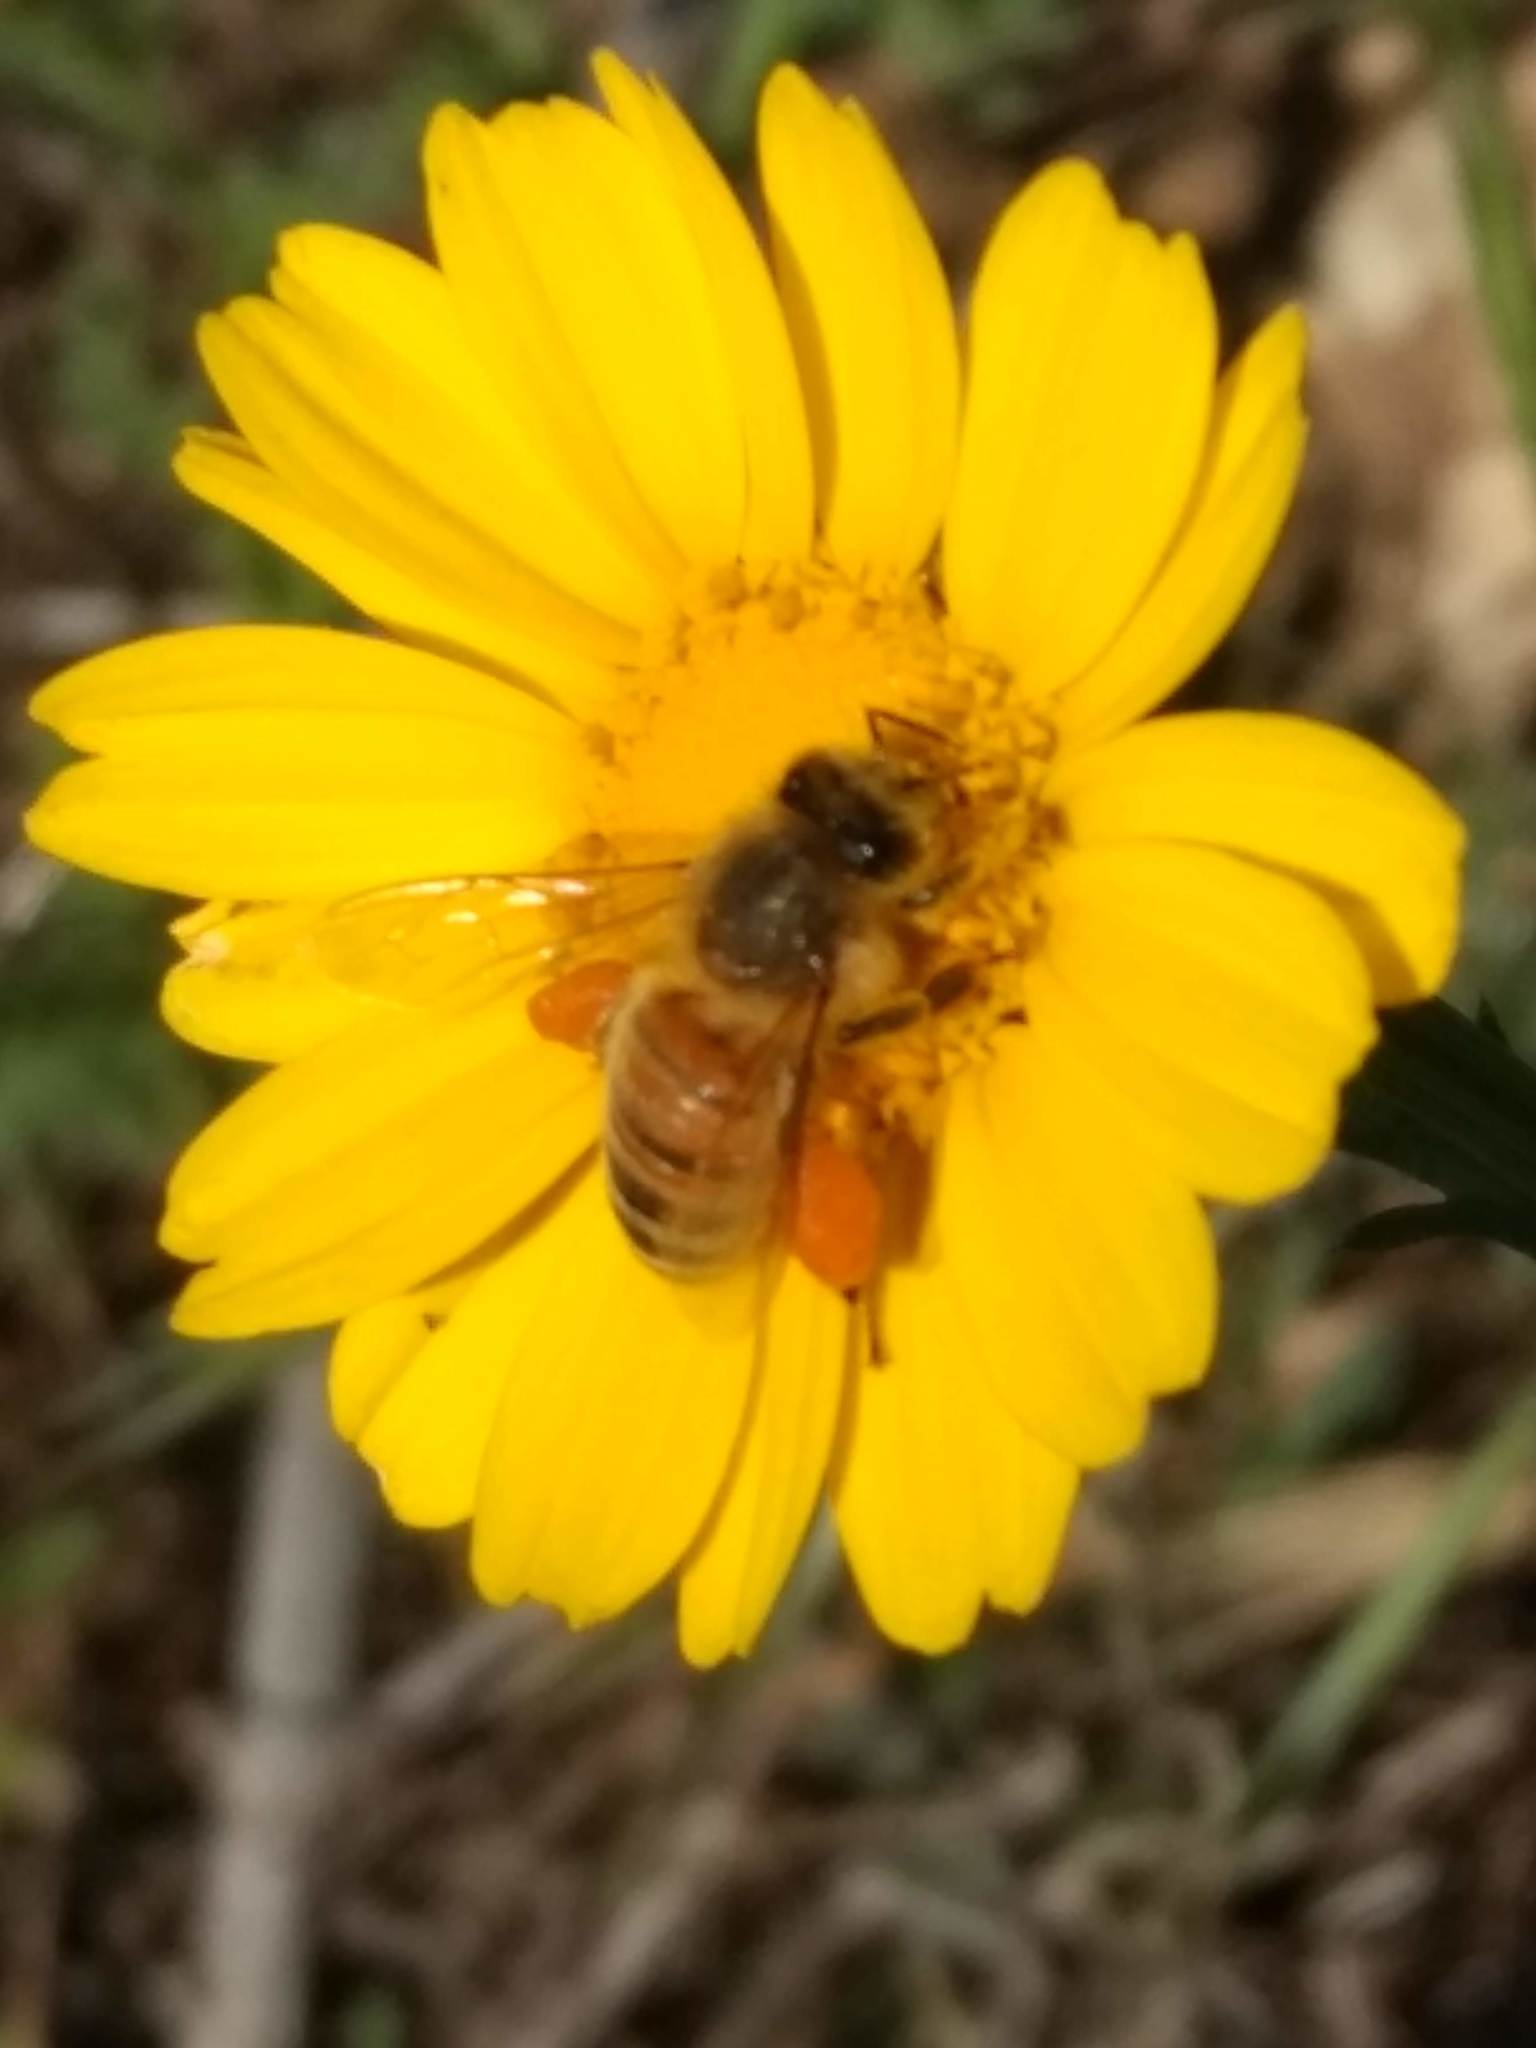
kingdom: Animalia
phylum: Arthropoda
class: Insecta
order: Hymenoptera
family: Apidae
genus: Apis
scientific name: Apis mellifera
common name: Honey bee
